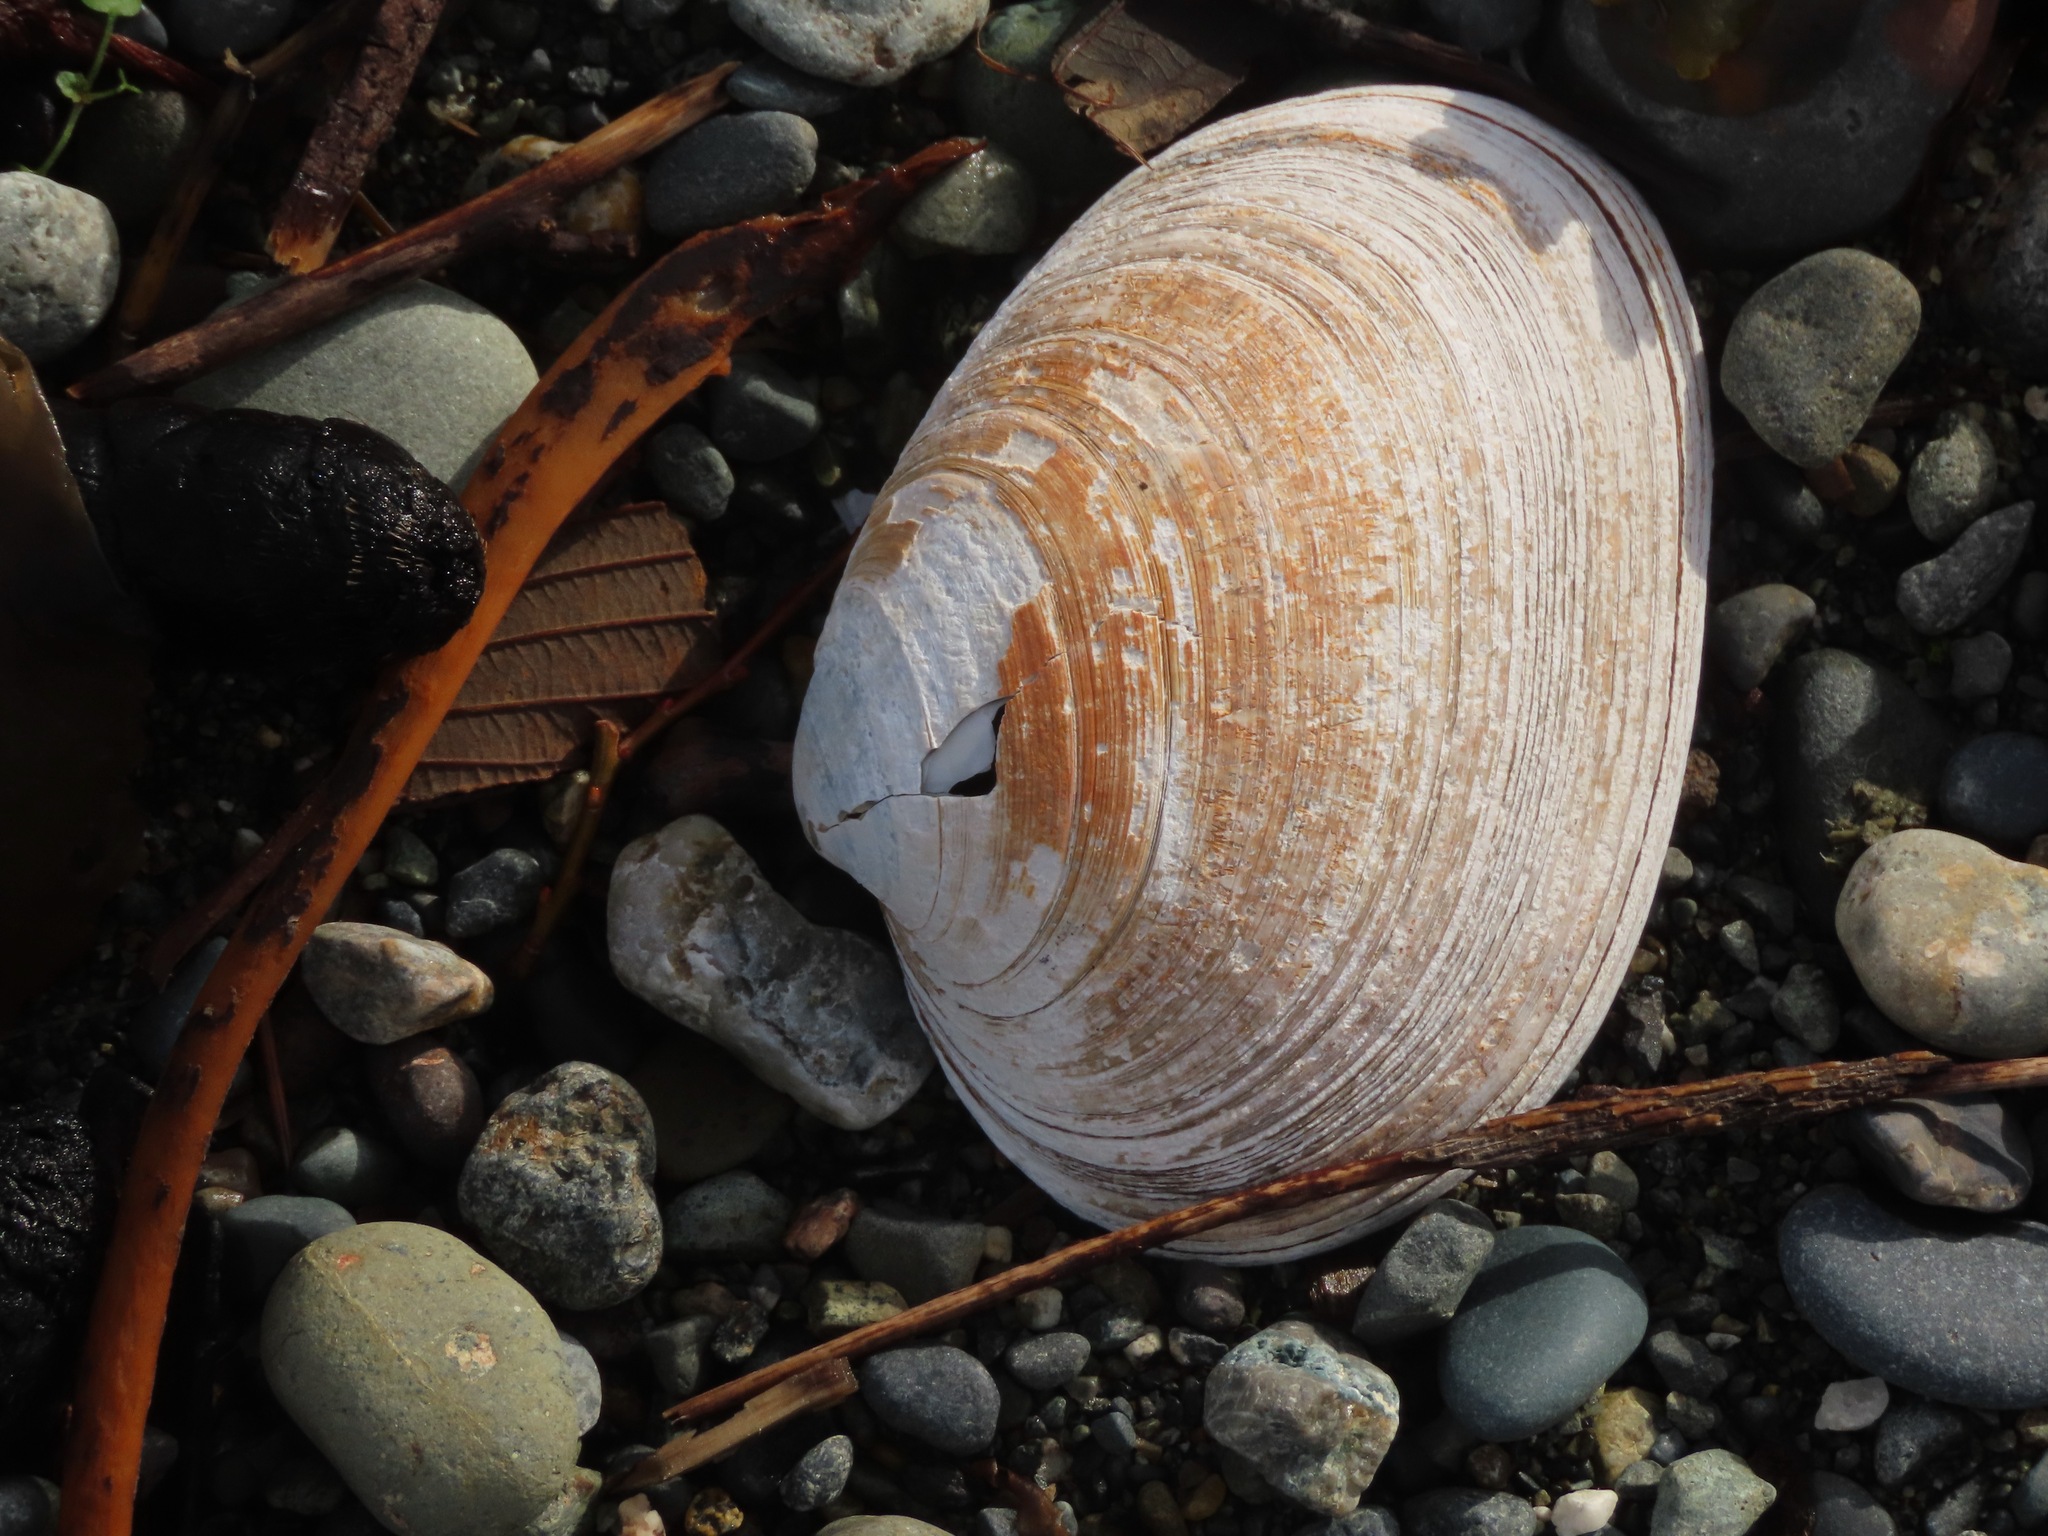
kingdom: Animalia
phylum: Mollusca
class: Bivalvia
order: Venerida
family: Veneridae
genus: Saxidomus
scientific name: Saxidomus gigantea
